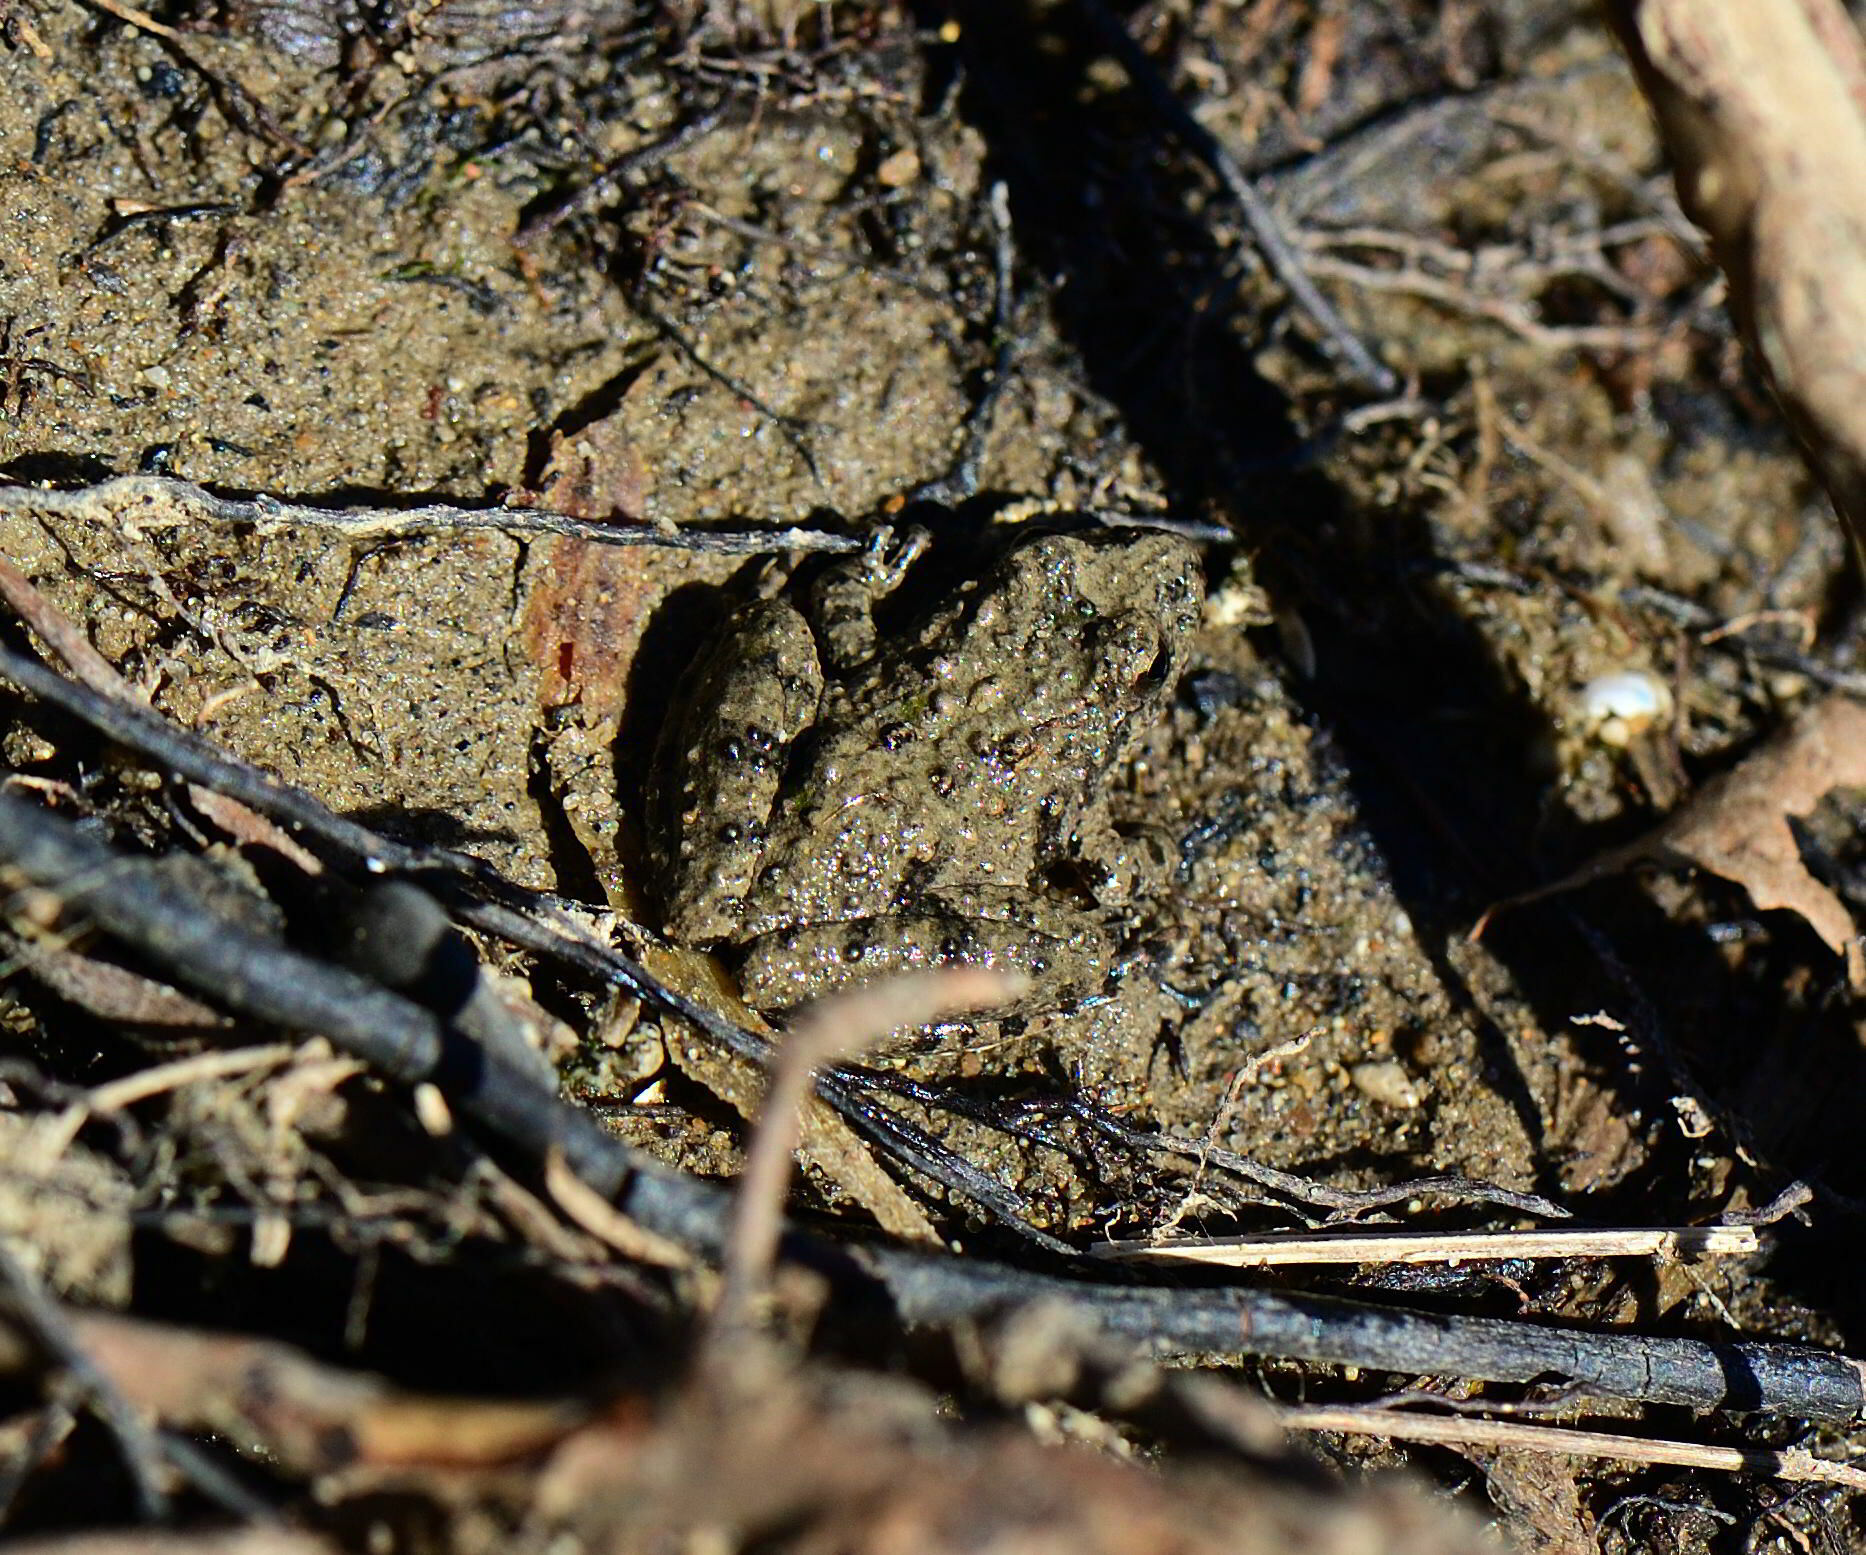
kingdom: Animalia
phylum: Chordata
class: Amphibia
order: Anura
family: Hylidae
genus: Acris
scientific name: Acris blanchardi
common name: Blanchard's cricket frog
